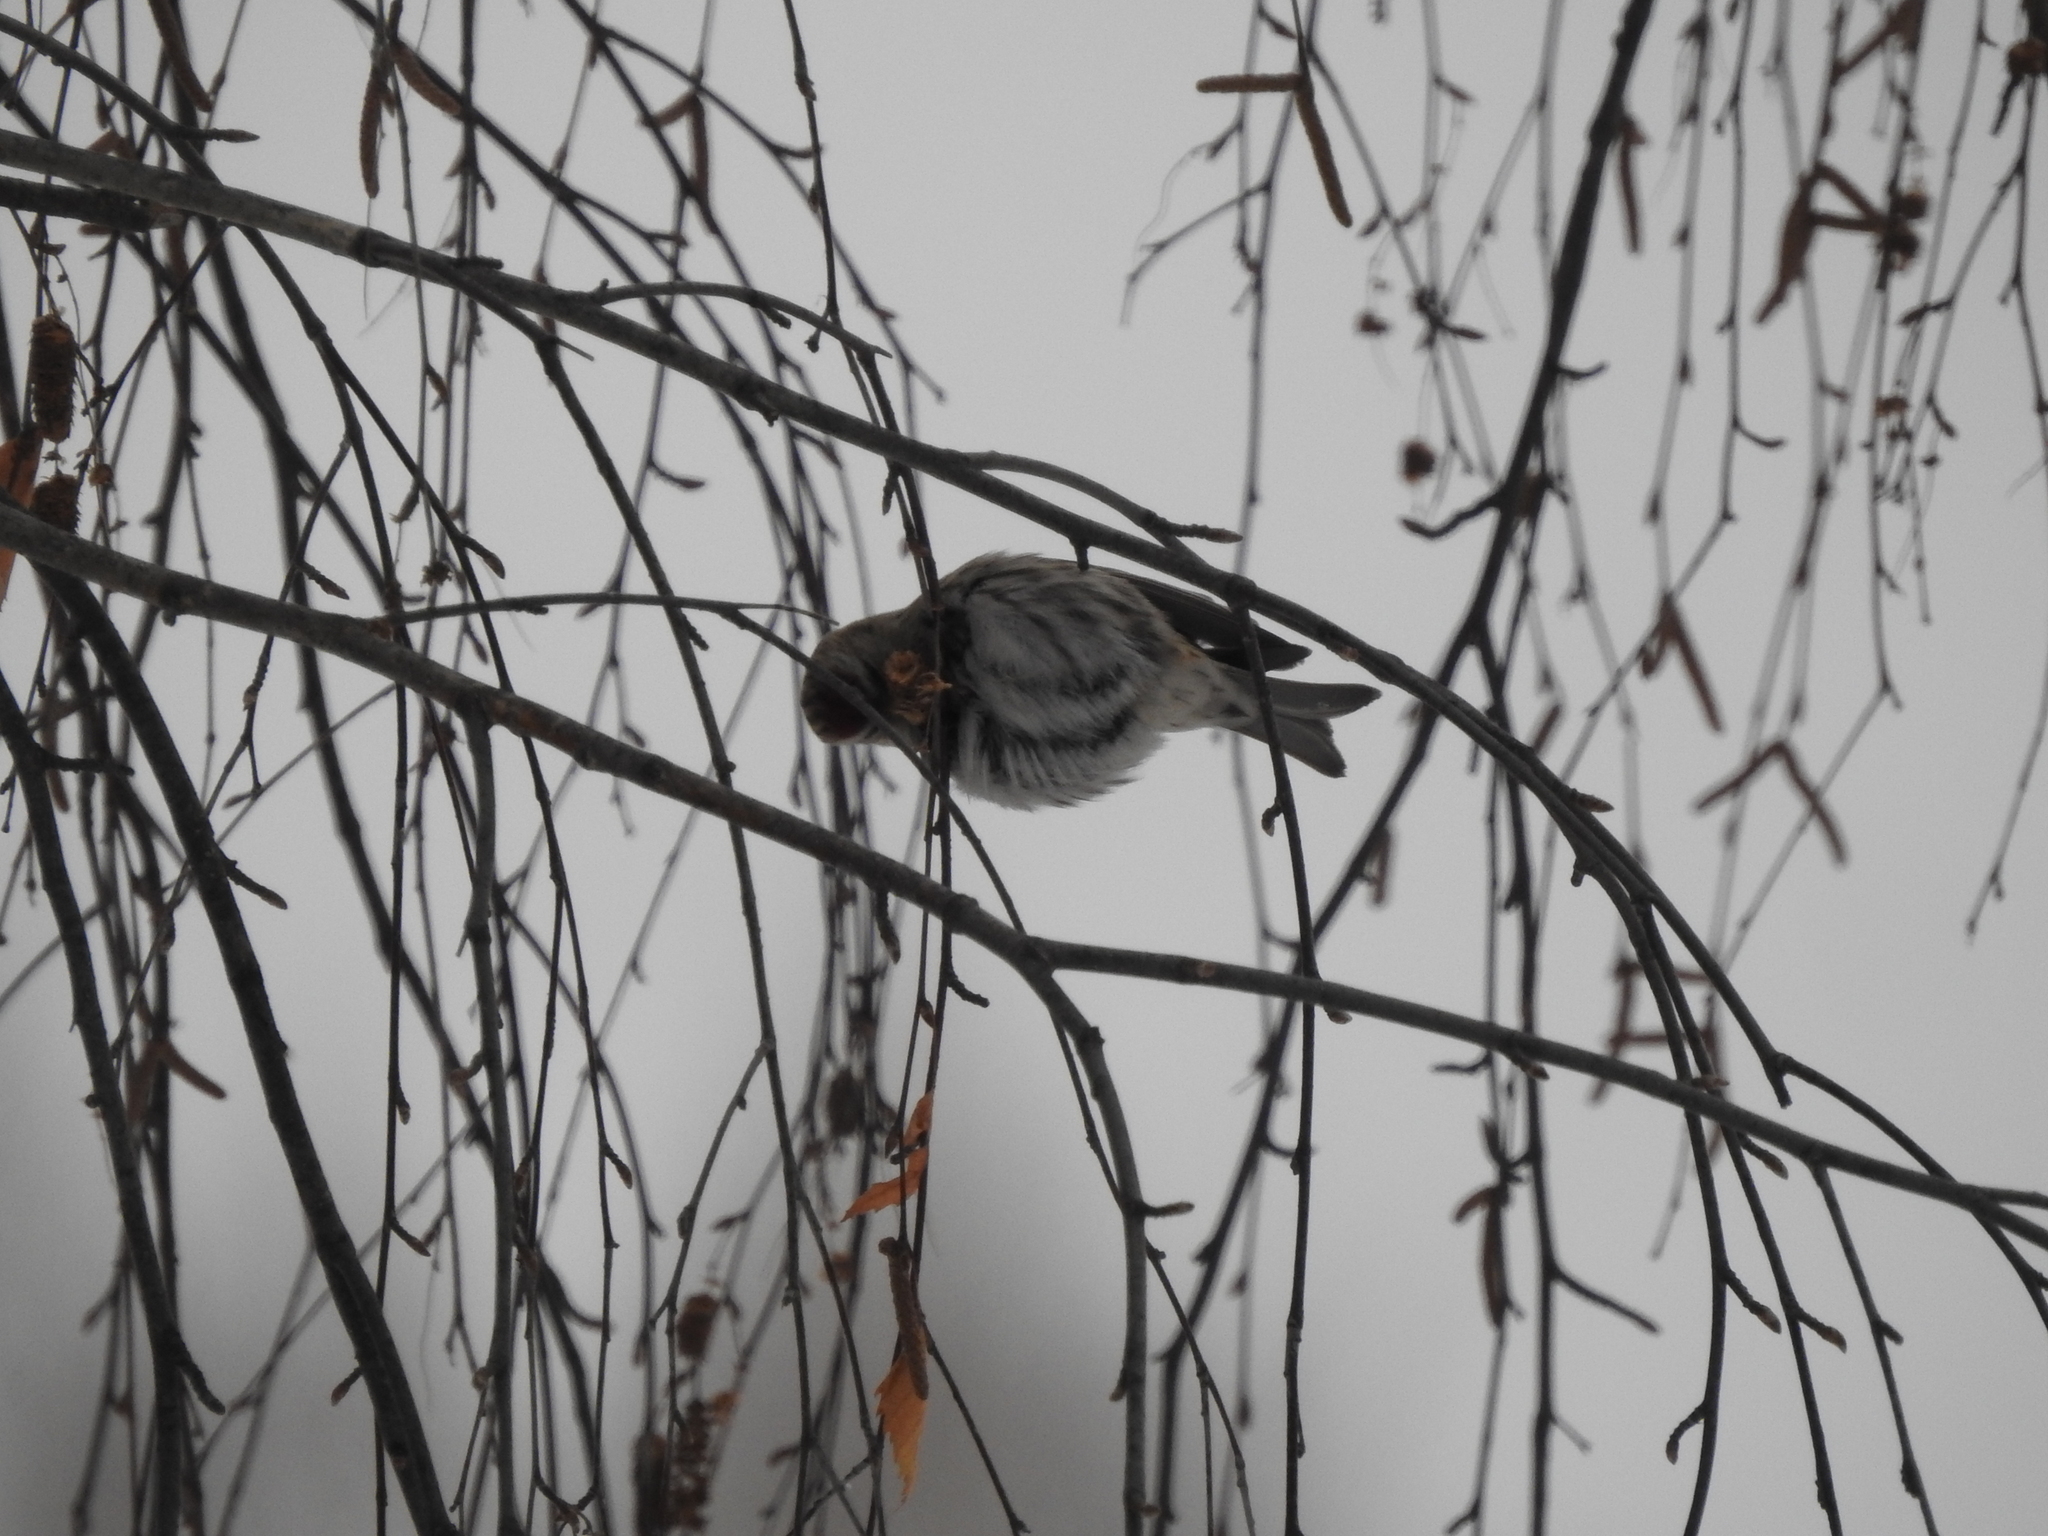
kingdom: Animalia
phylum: Chordata
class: Aves
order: Passeriformes
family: Fringillidae
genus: Acanthis
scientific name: Acanthis flammea
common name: Common redpoll
